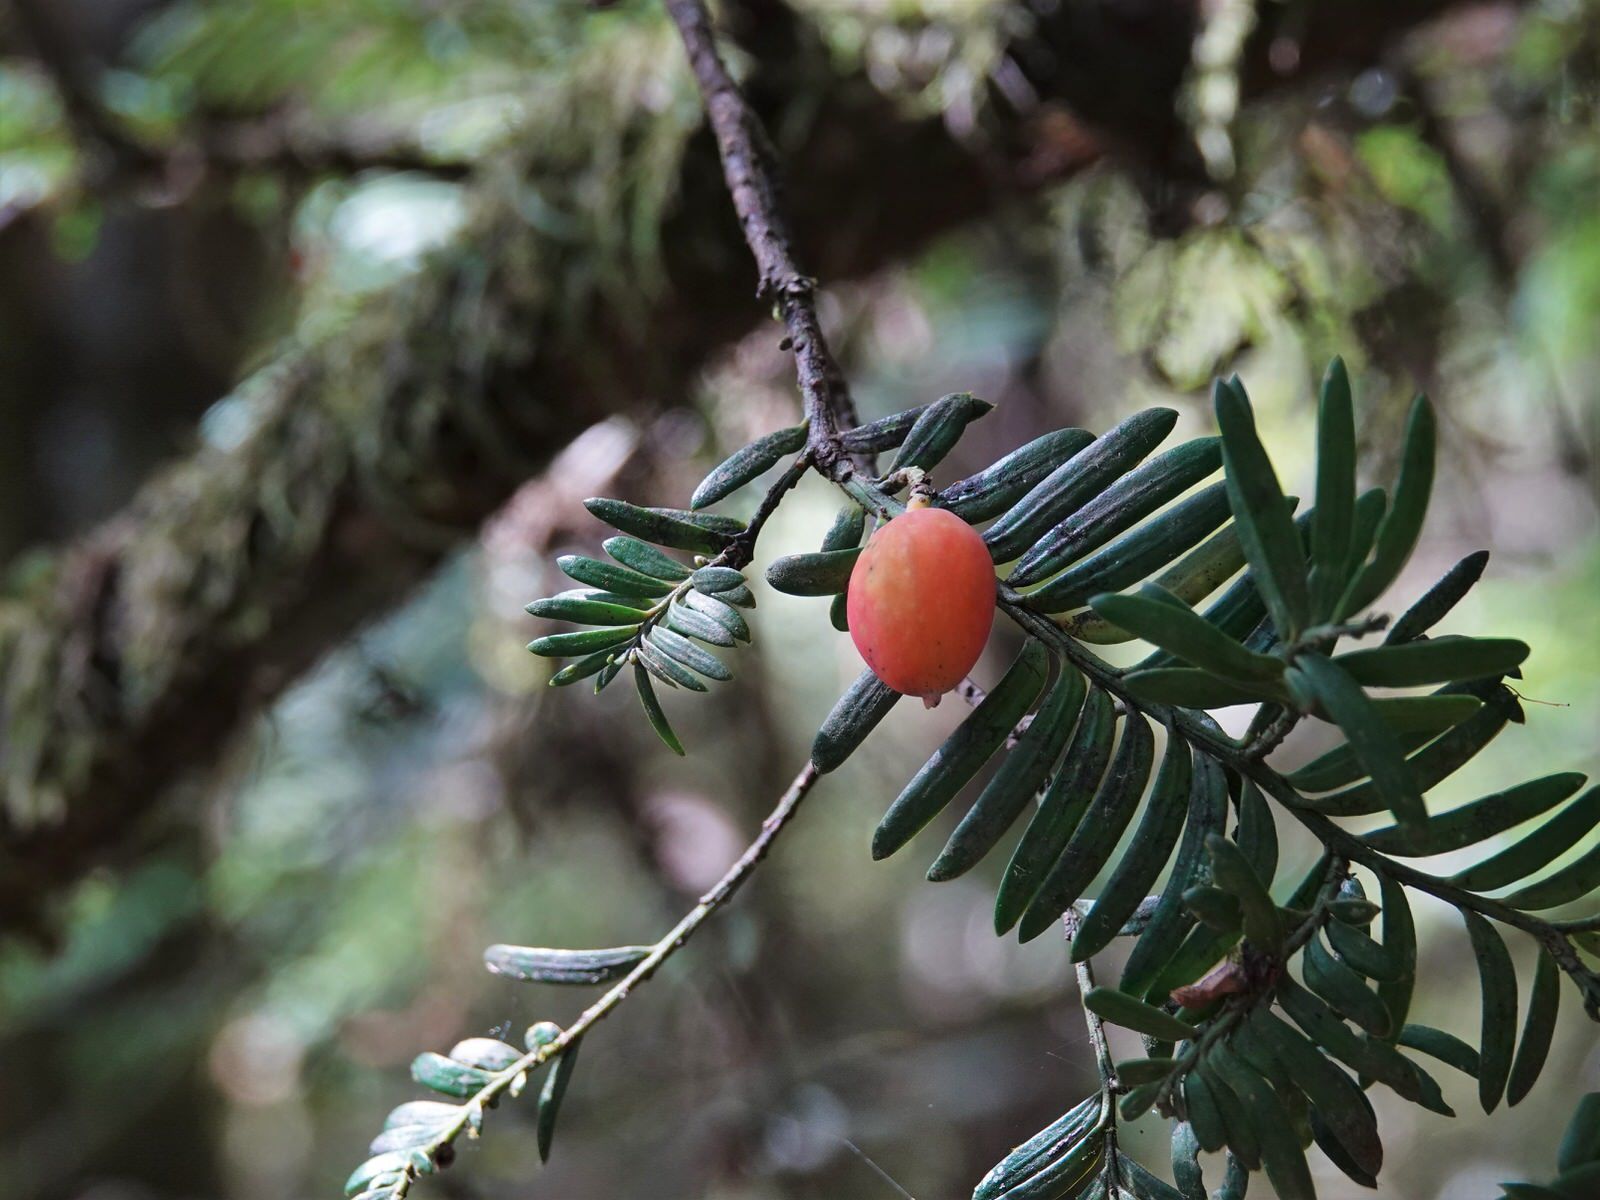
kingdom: Plantae
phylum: Tracheophyta
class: Pinopsida
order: Pinales
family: Podocarpaceae
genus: Prumnopitys
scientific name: Prumnopitys ferruginea
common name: Brown pine
